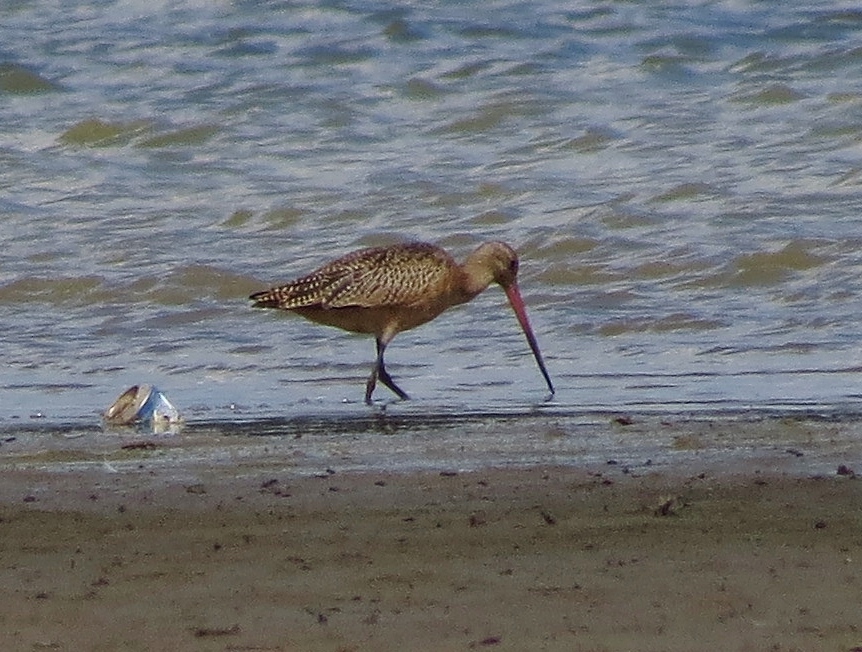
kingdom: Animalia
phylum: Chordata
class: Aves
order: Charadriiformes
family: Scolopacidae
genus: Limosa
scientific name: Limosa fedoa
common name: Marbled godwit
